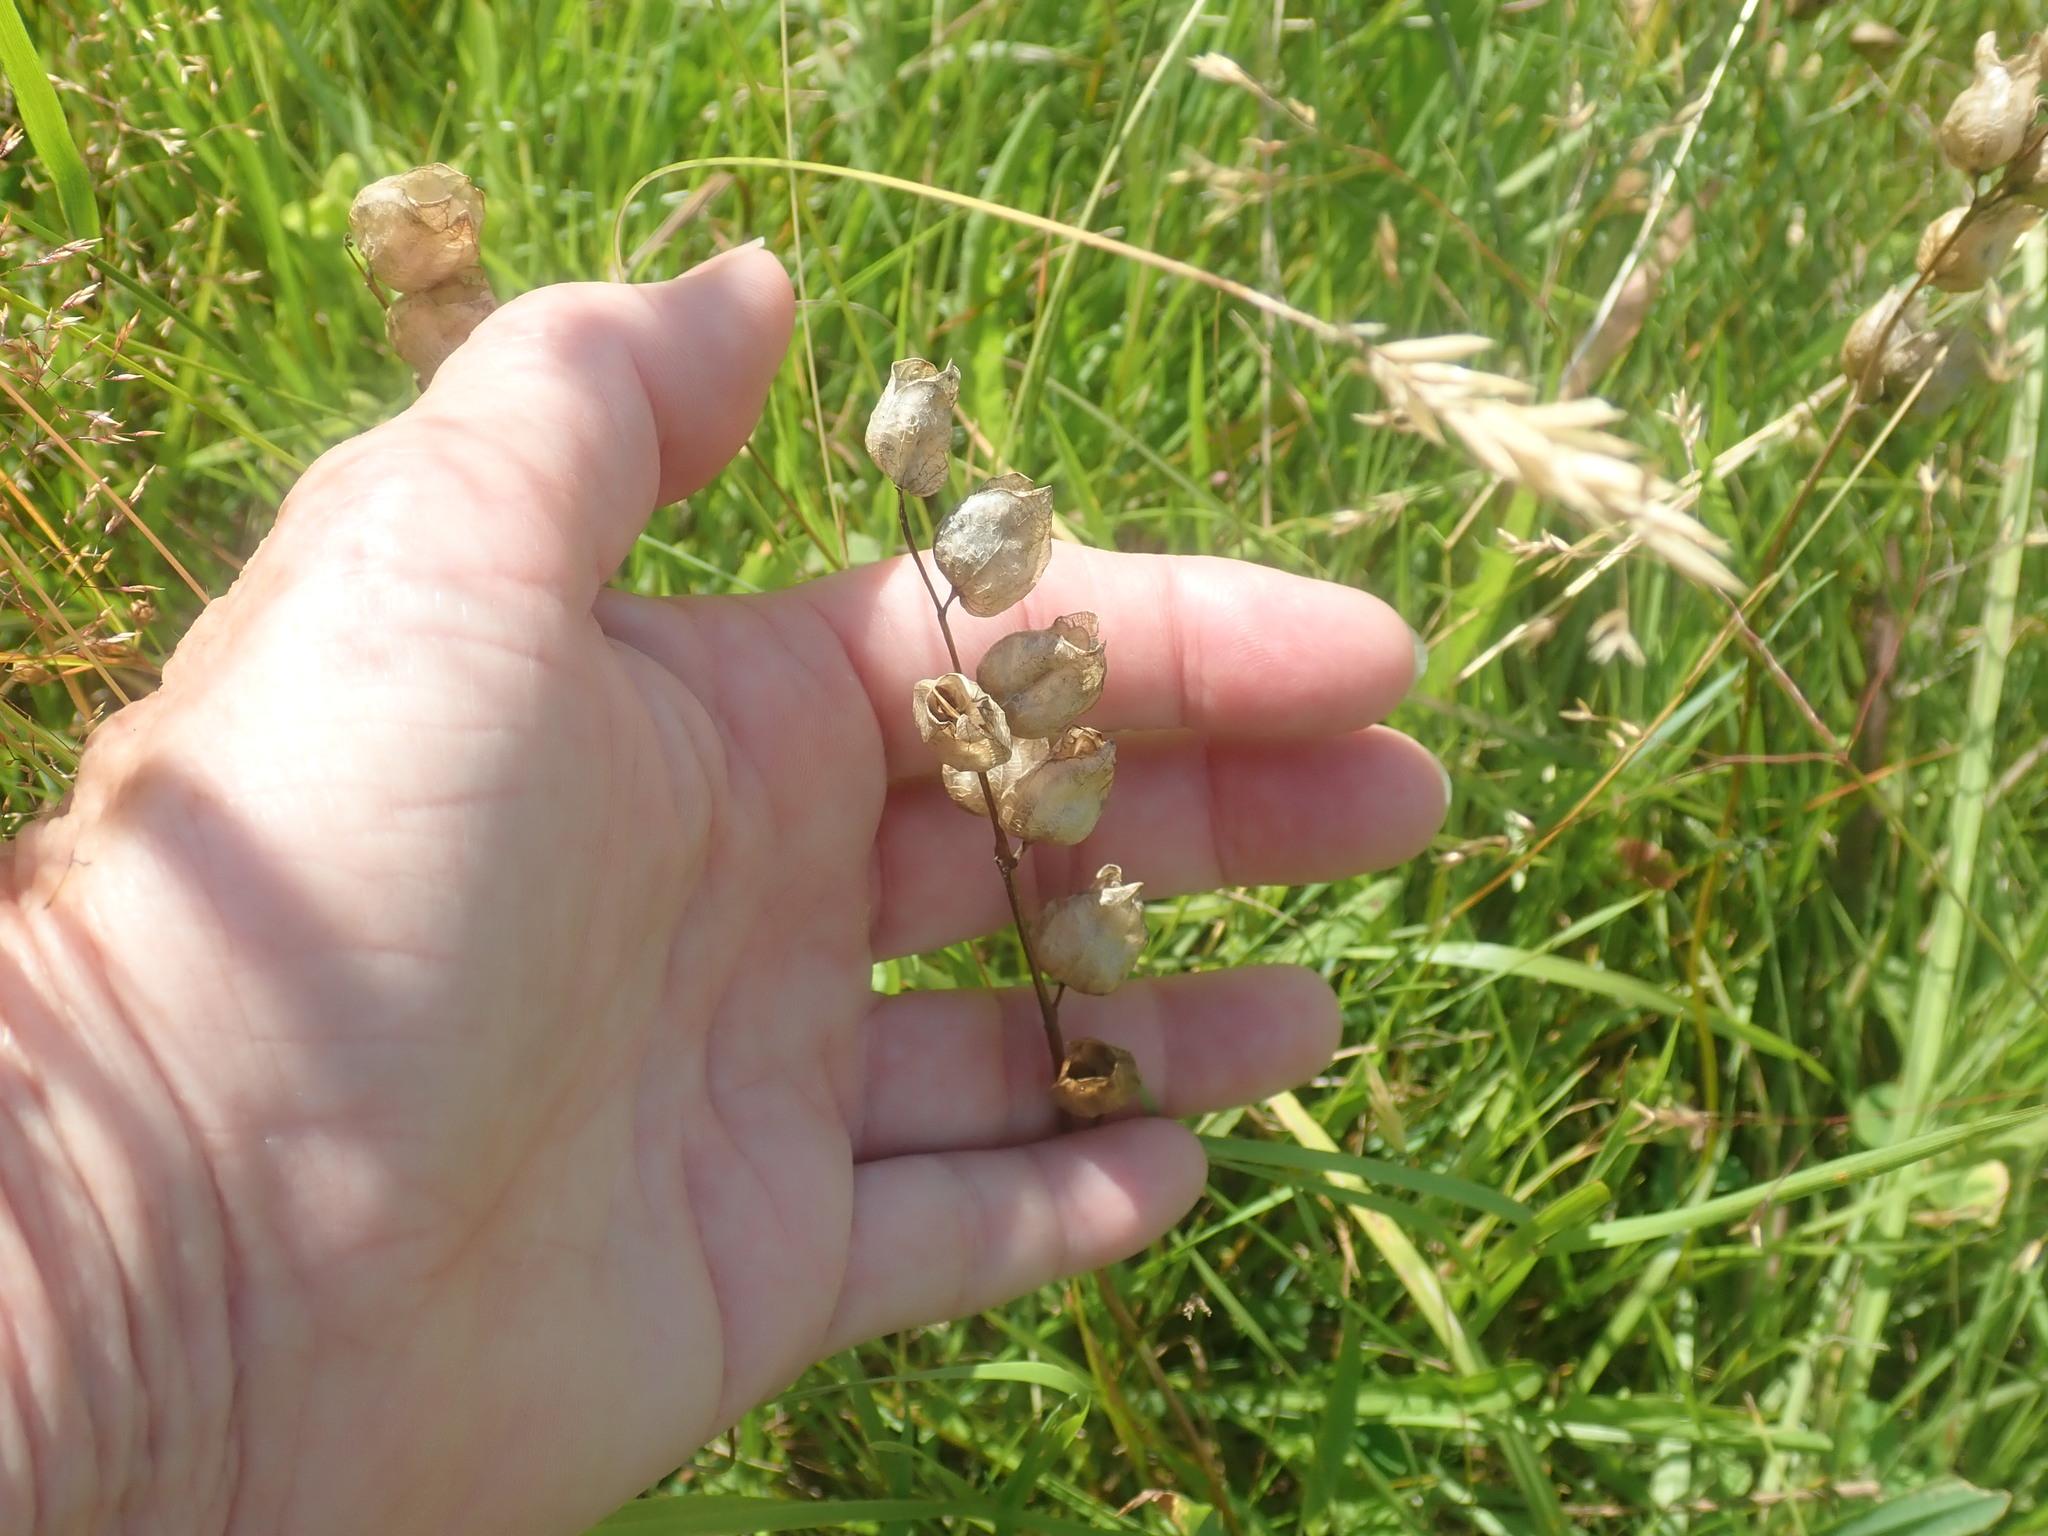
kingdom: Plantae
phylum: Tracheophyta
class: Magnoliopsida
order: Lamiales
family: Orobanchaceae
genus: Rhinanthus
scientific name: Rhinanthus minor
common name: Yellow-rattle
